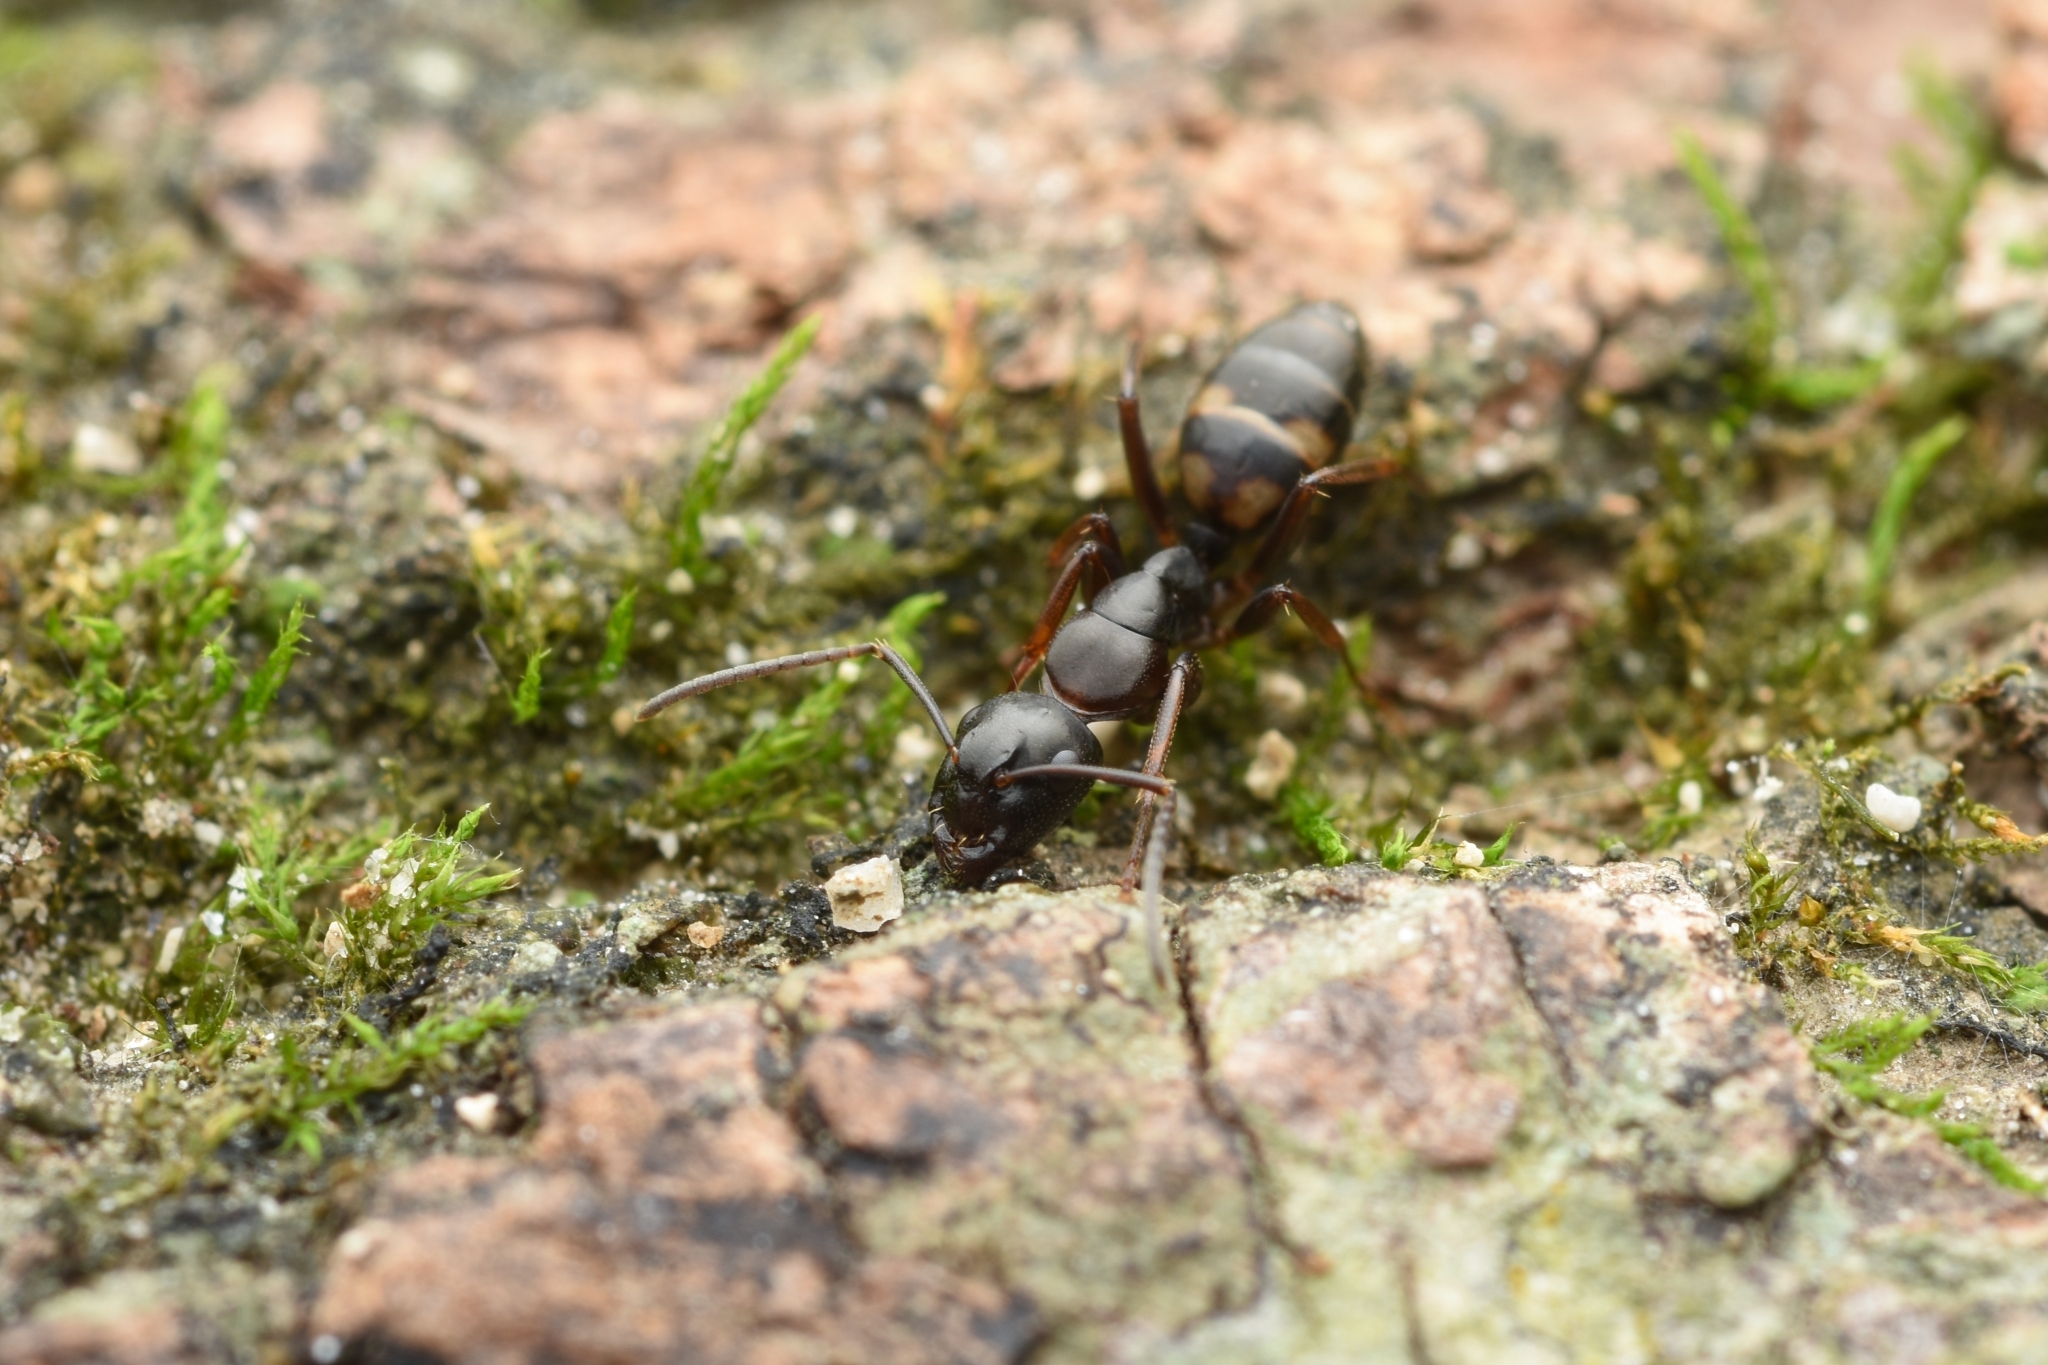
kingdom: Animalia
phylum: Arthropoda
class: Insecta
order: Hymenoptera
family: Formicidae
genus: Camponotus
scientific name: Camponotus quadrinotatus
